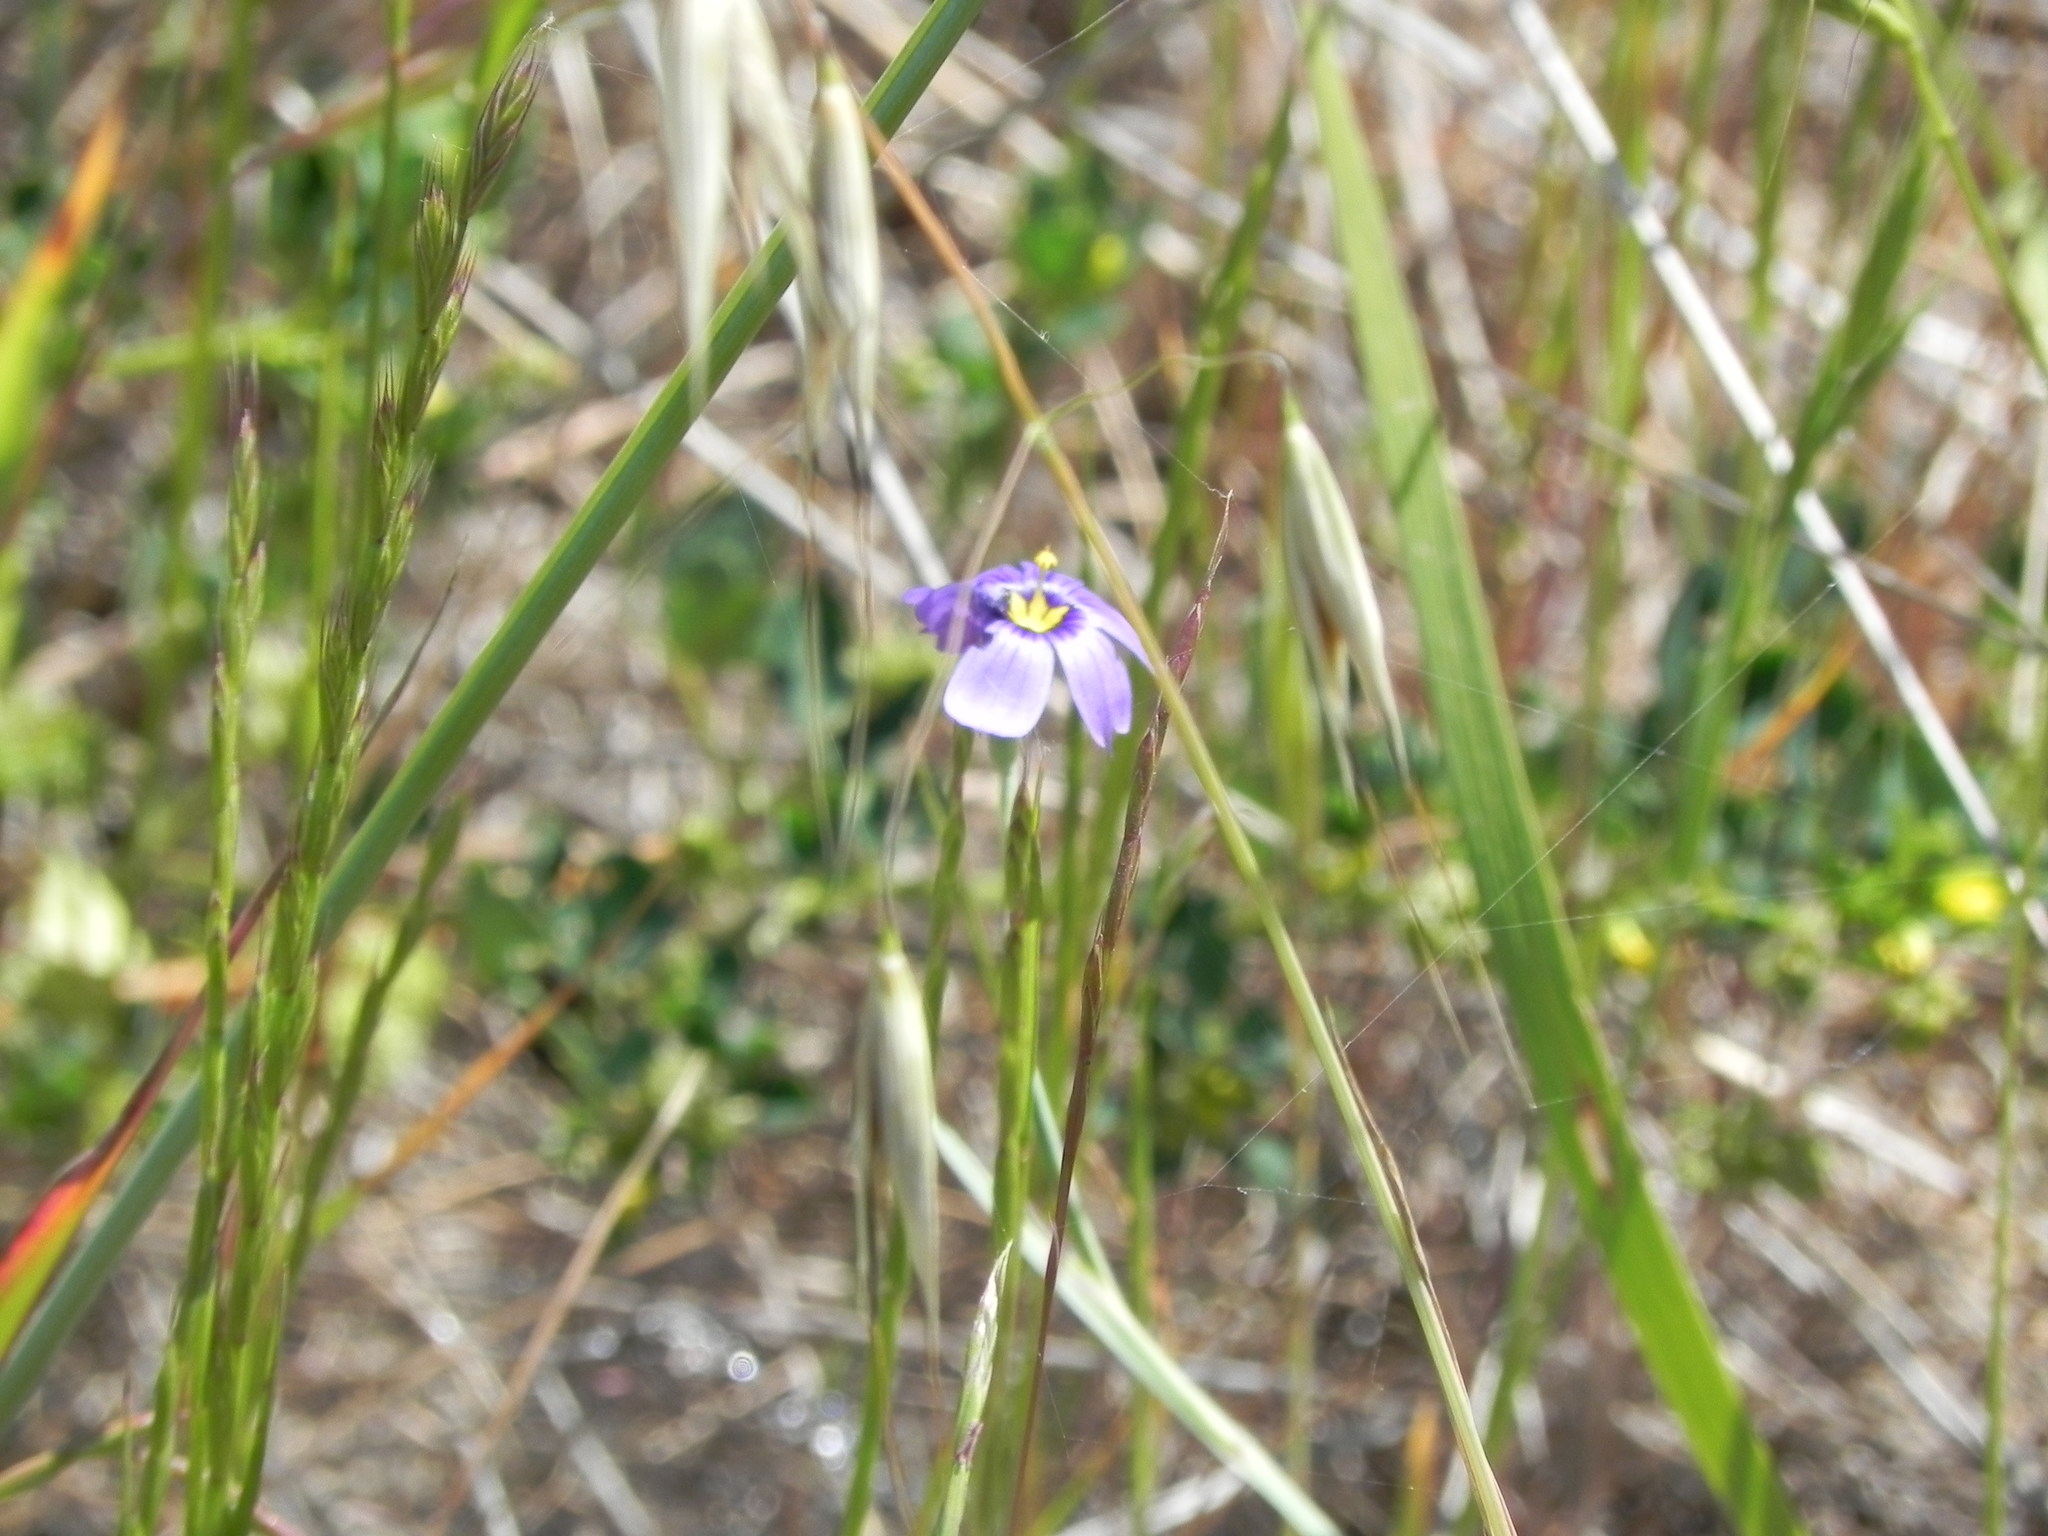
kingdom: Plantae
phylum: Tracheophyta
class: Liliopsida
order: Asparagales
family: Iridaceae
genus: Sisyrinchium
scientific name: Sisyrinchium bellum
